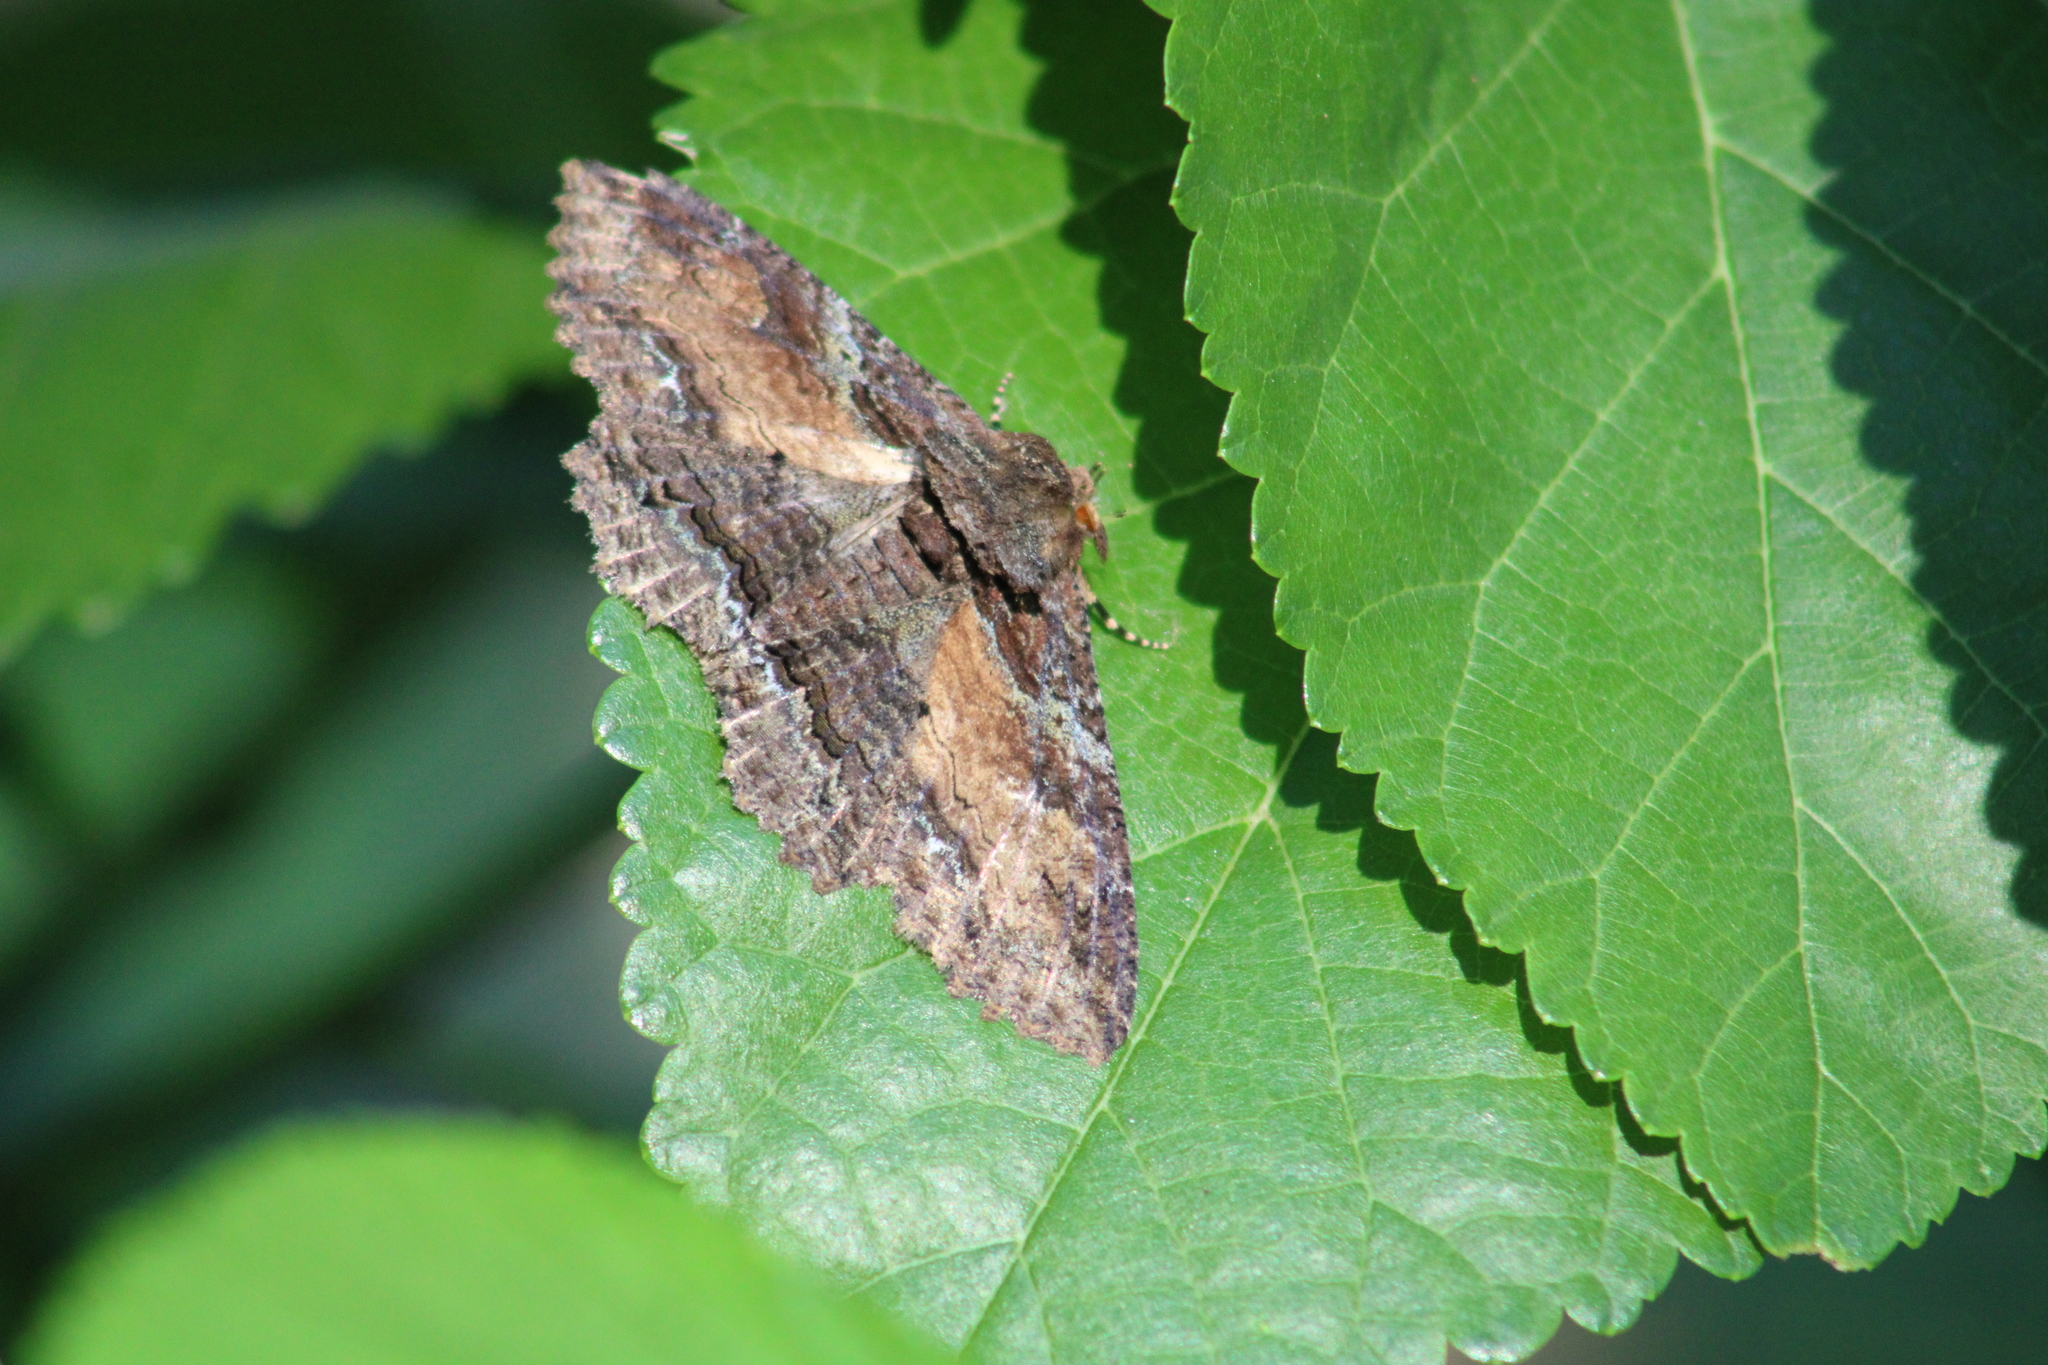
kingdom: Animalia
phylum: Arthropoda
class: Insecta
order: Lepidoptera
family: Erebidae
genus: Zale
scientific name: Zale lunata
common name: Lunate zale moth
